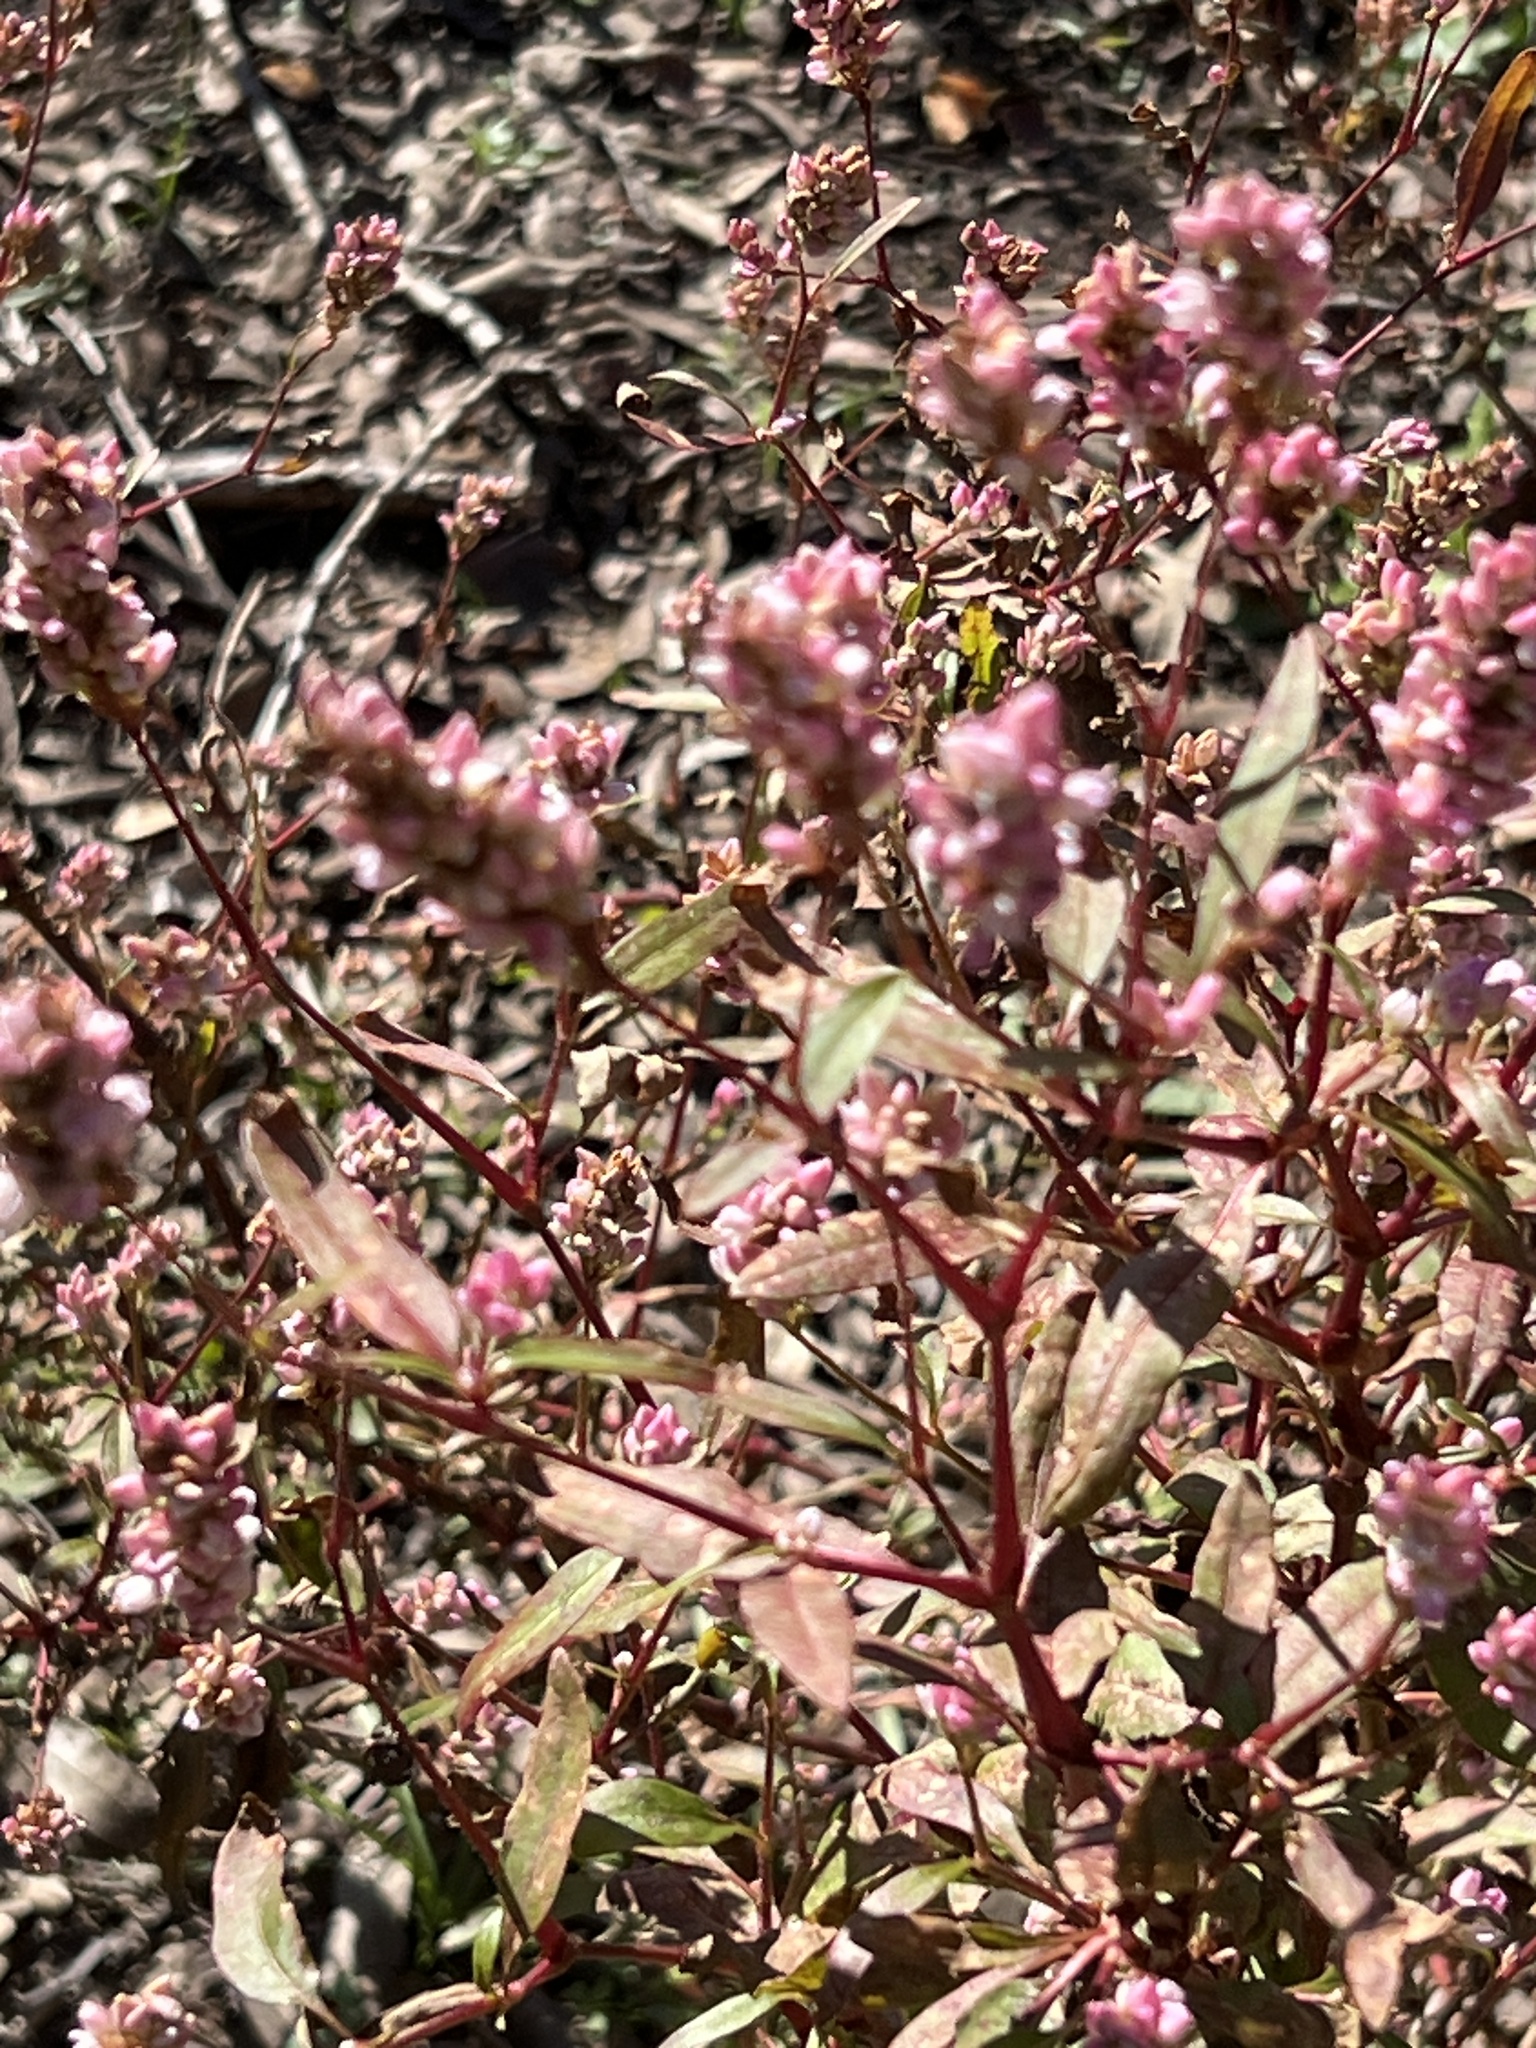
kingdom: Plantae
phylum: Tracheophyta
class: Magnoliopsida
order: Caryophyllales
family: Polygonaceae
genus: Persicaria
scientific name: Persicaria pensylvanica
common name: Pinkweed
